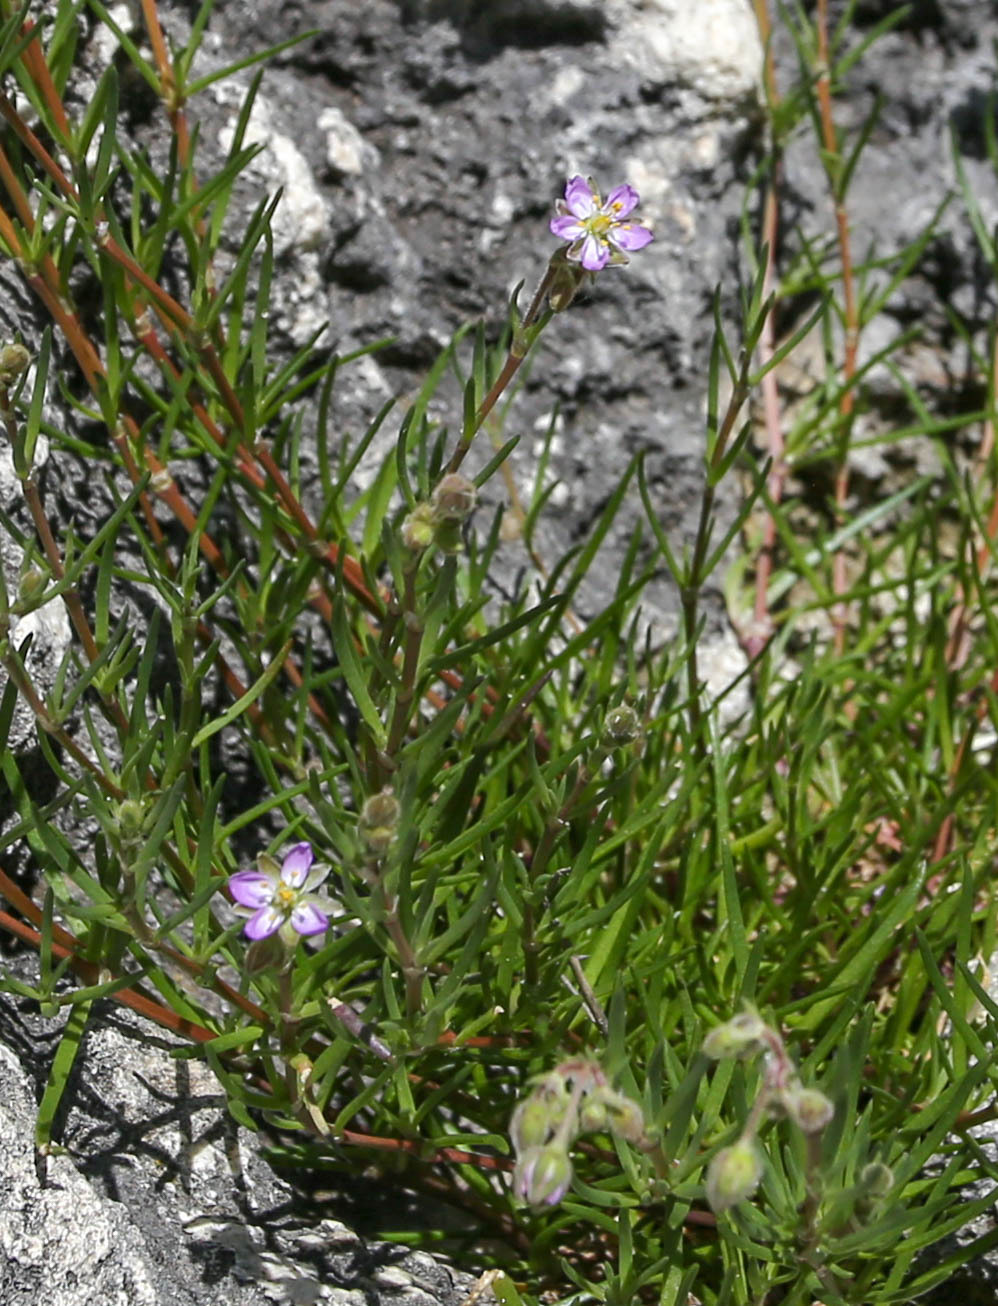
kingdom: Plantae
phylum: Tracheophyta
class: Magnoliopsida
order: Caryophyllales
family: Caryophyllaceae
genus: Spergularia
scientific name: Spergularia media
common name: Greater sea-spurrey
